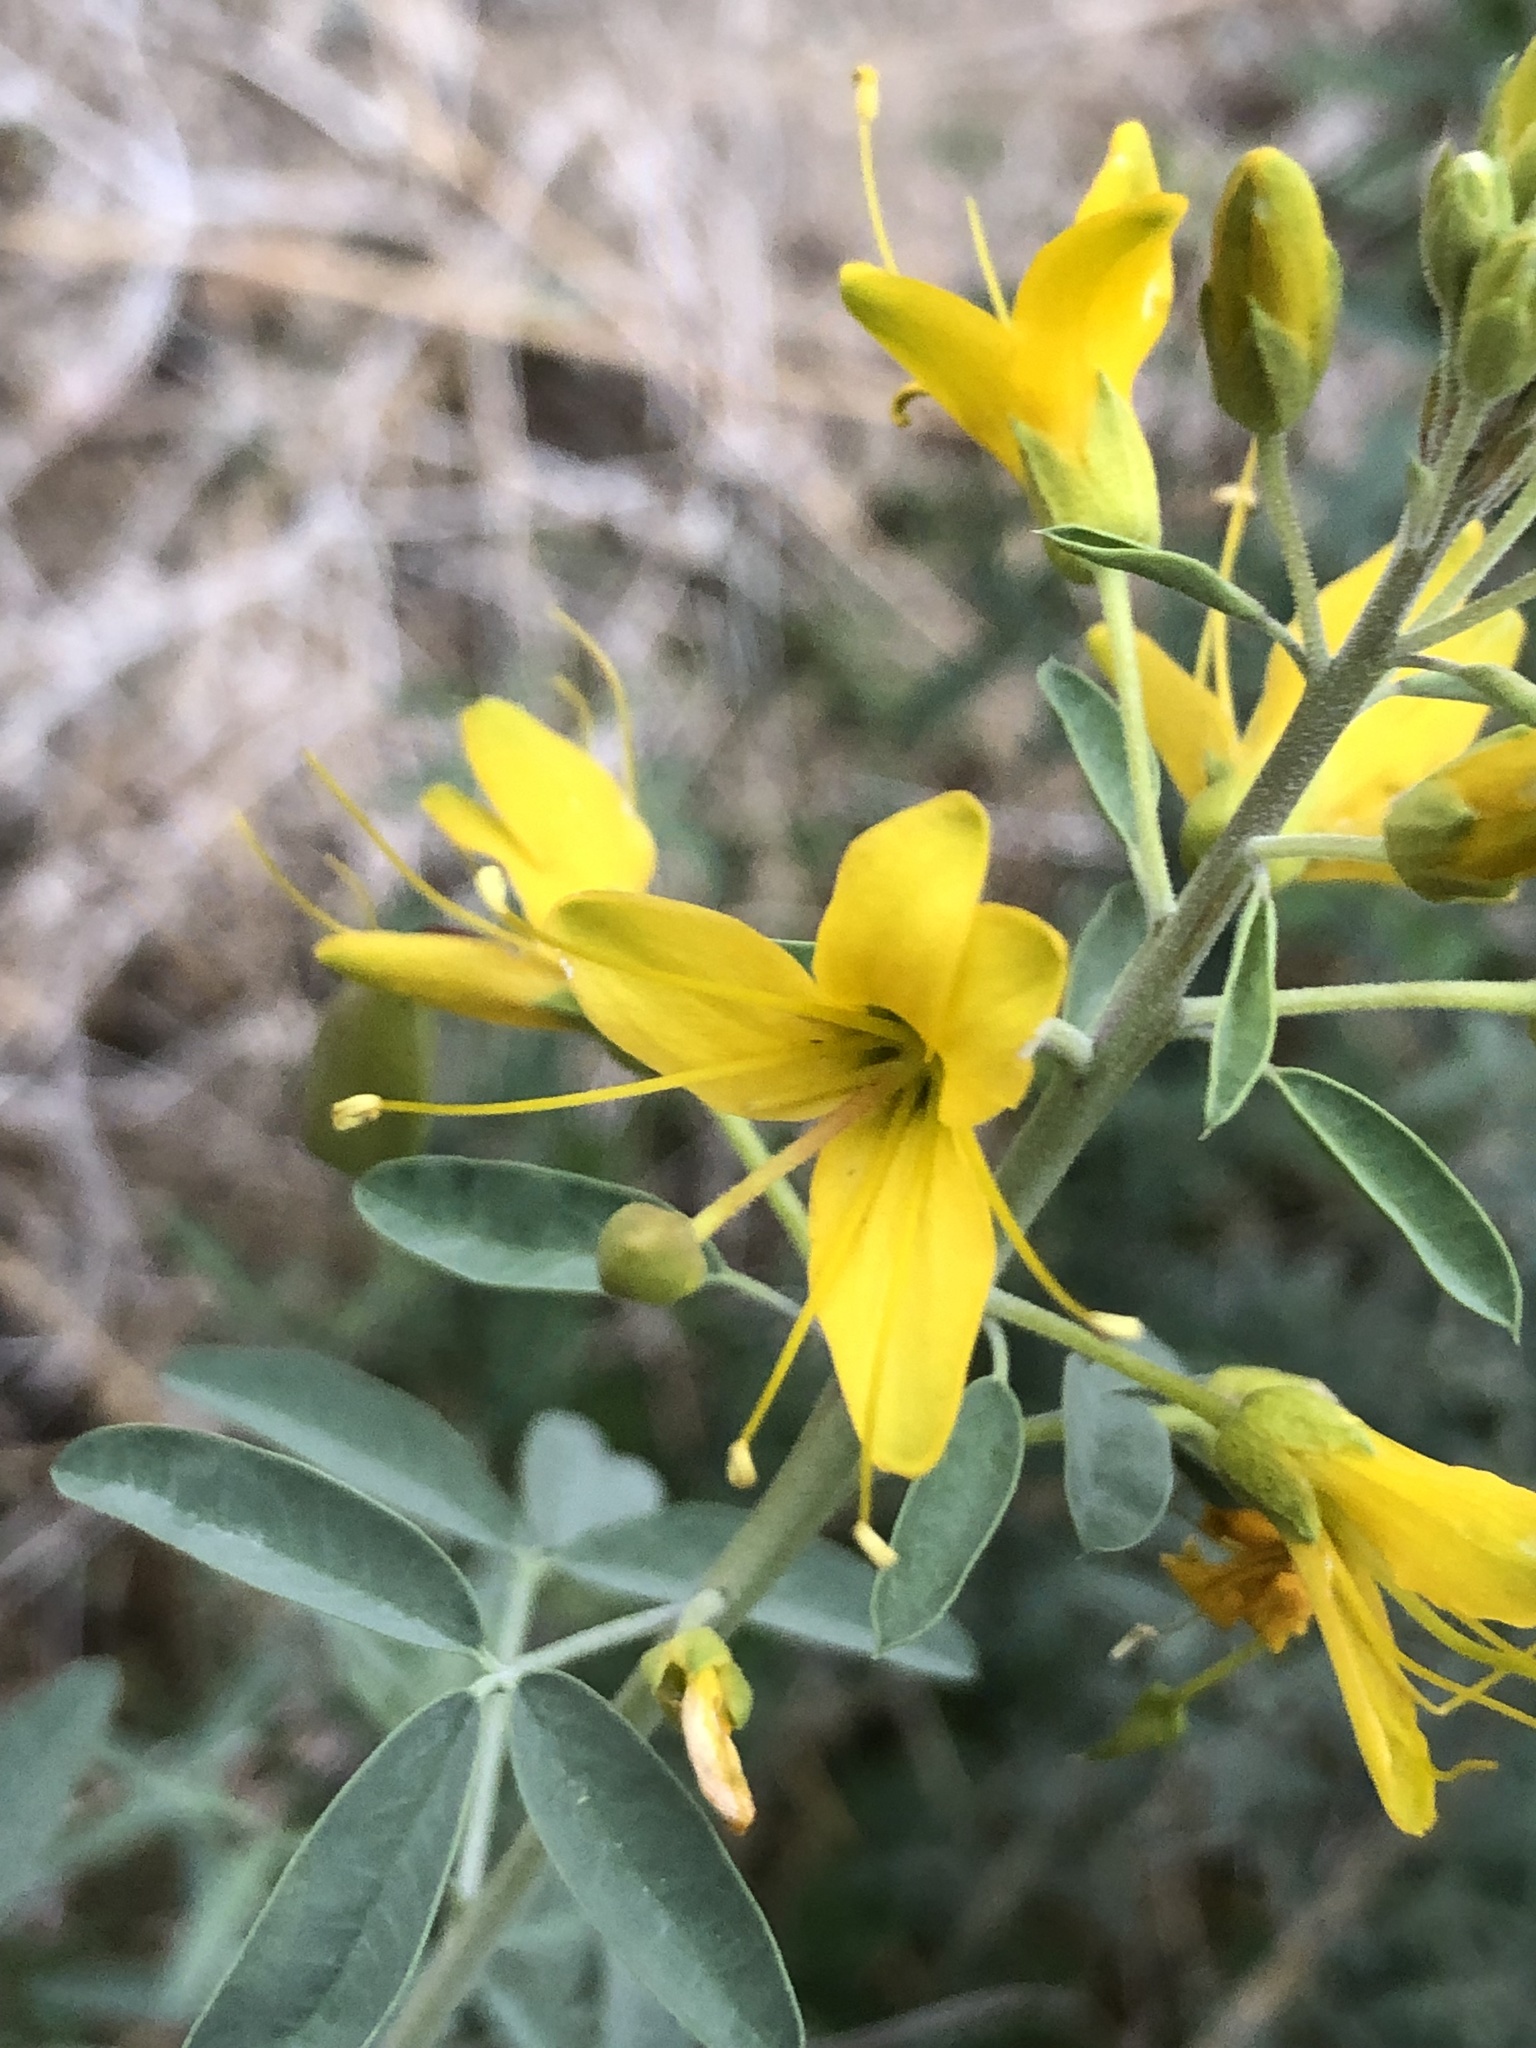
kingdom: Plantae
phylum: Tracheophyta
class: Magnoliopsida
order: Brassicales
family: Cleomaceae
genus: Cleomella
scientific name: Cleomella arborea
